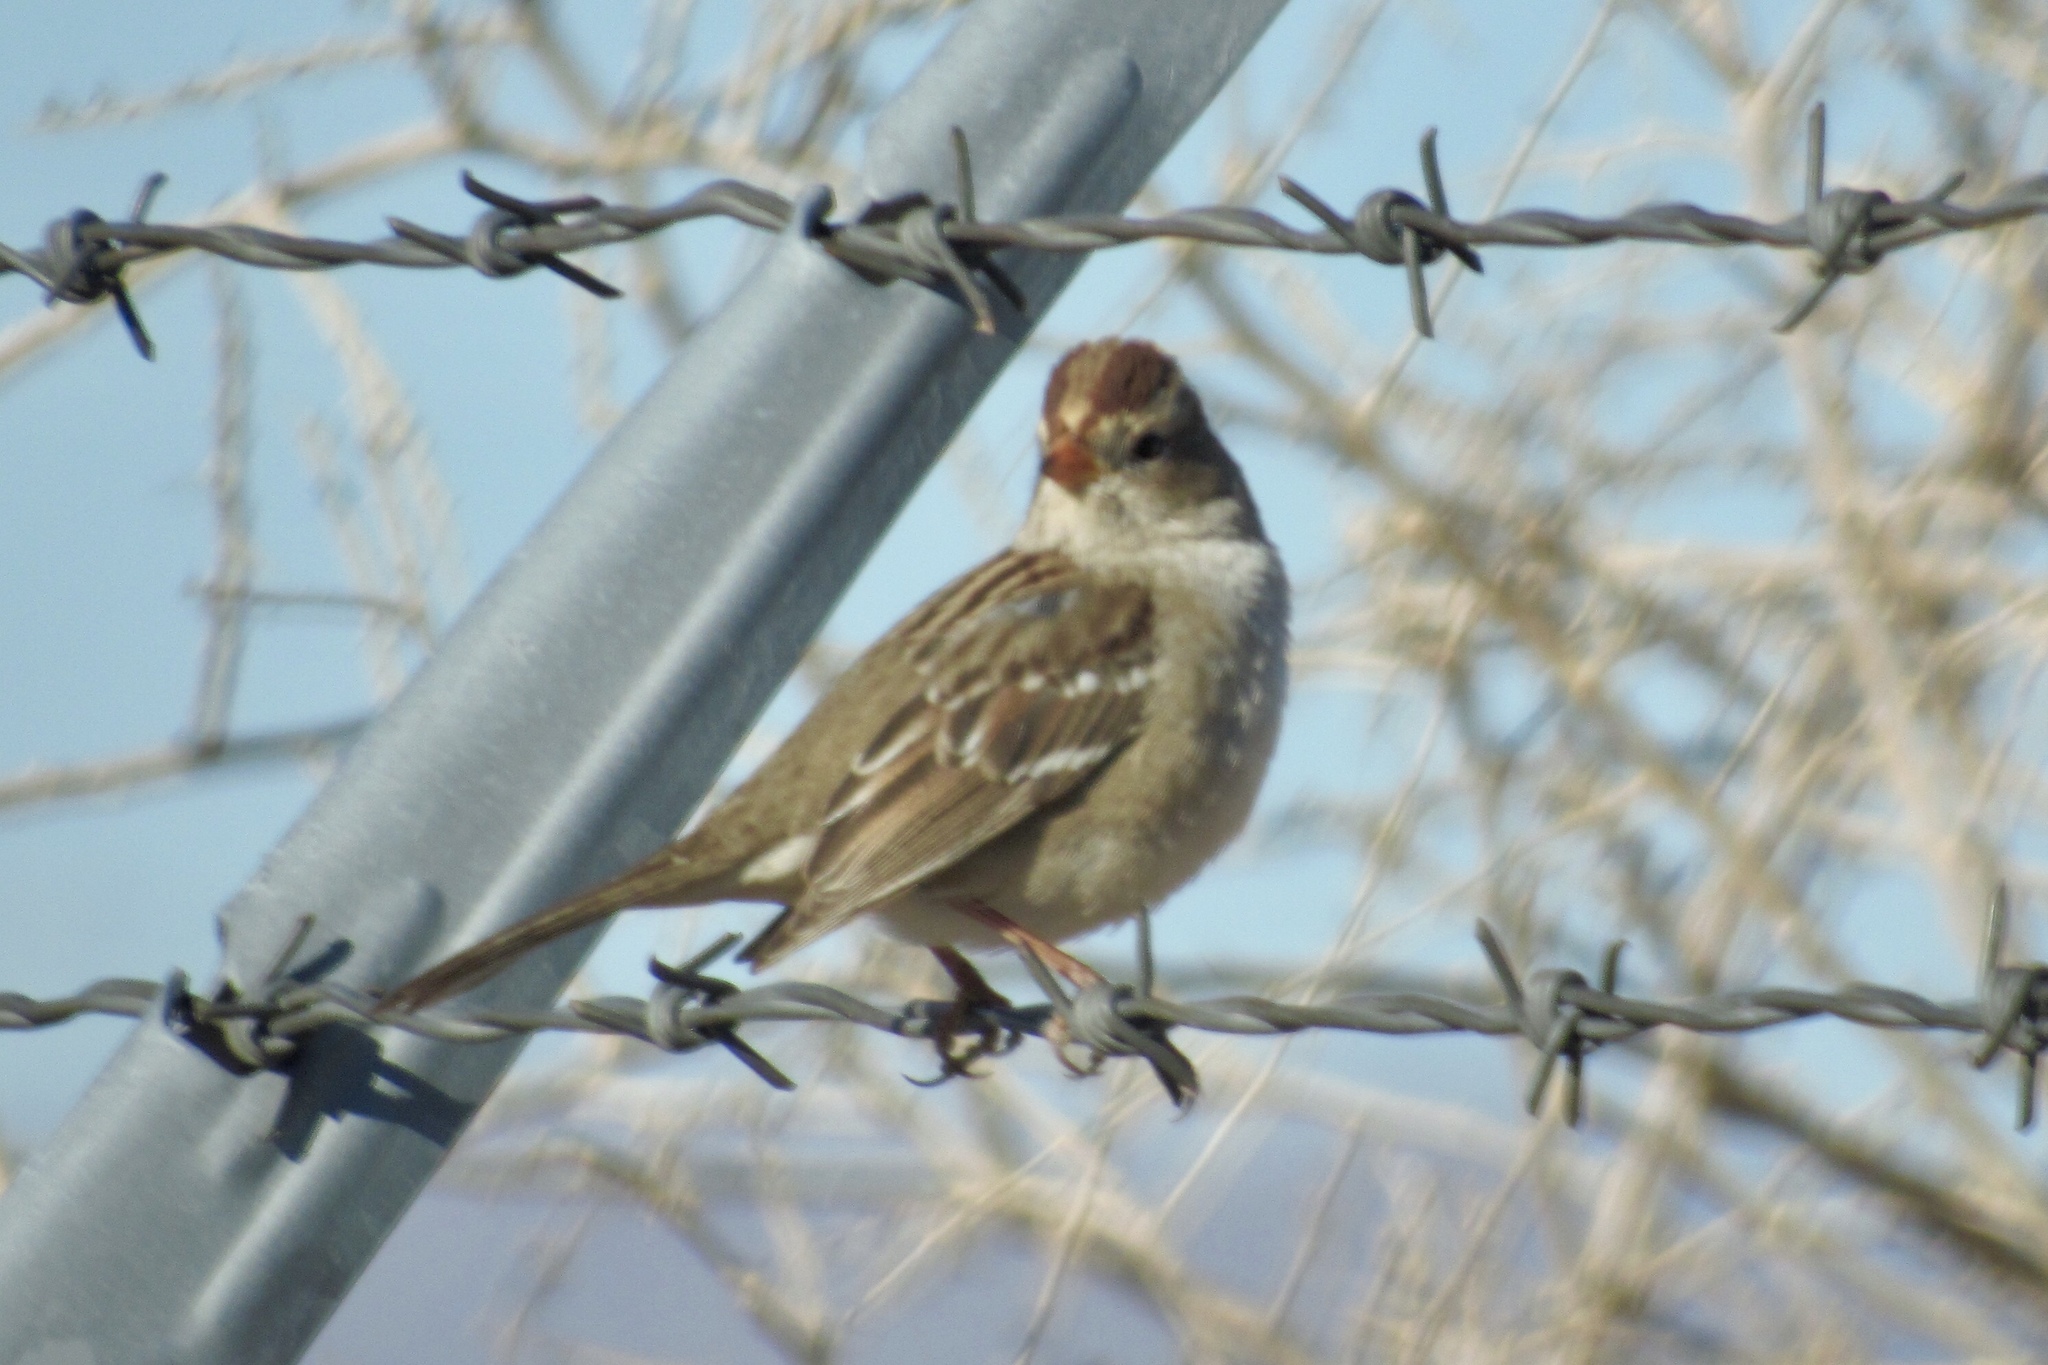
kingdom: Animalia
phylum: Chordata
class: Aves
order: Passeriformes
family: Passerellidae
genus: Zonotrichia
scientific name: Zonotrichia leucophrys
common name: White-crowned sparrow
